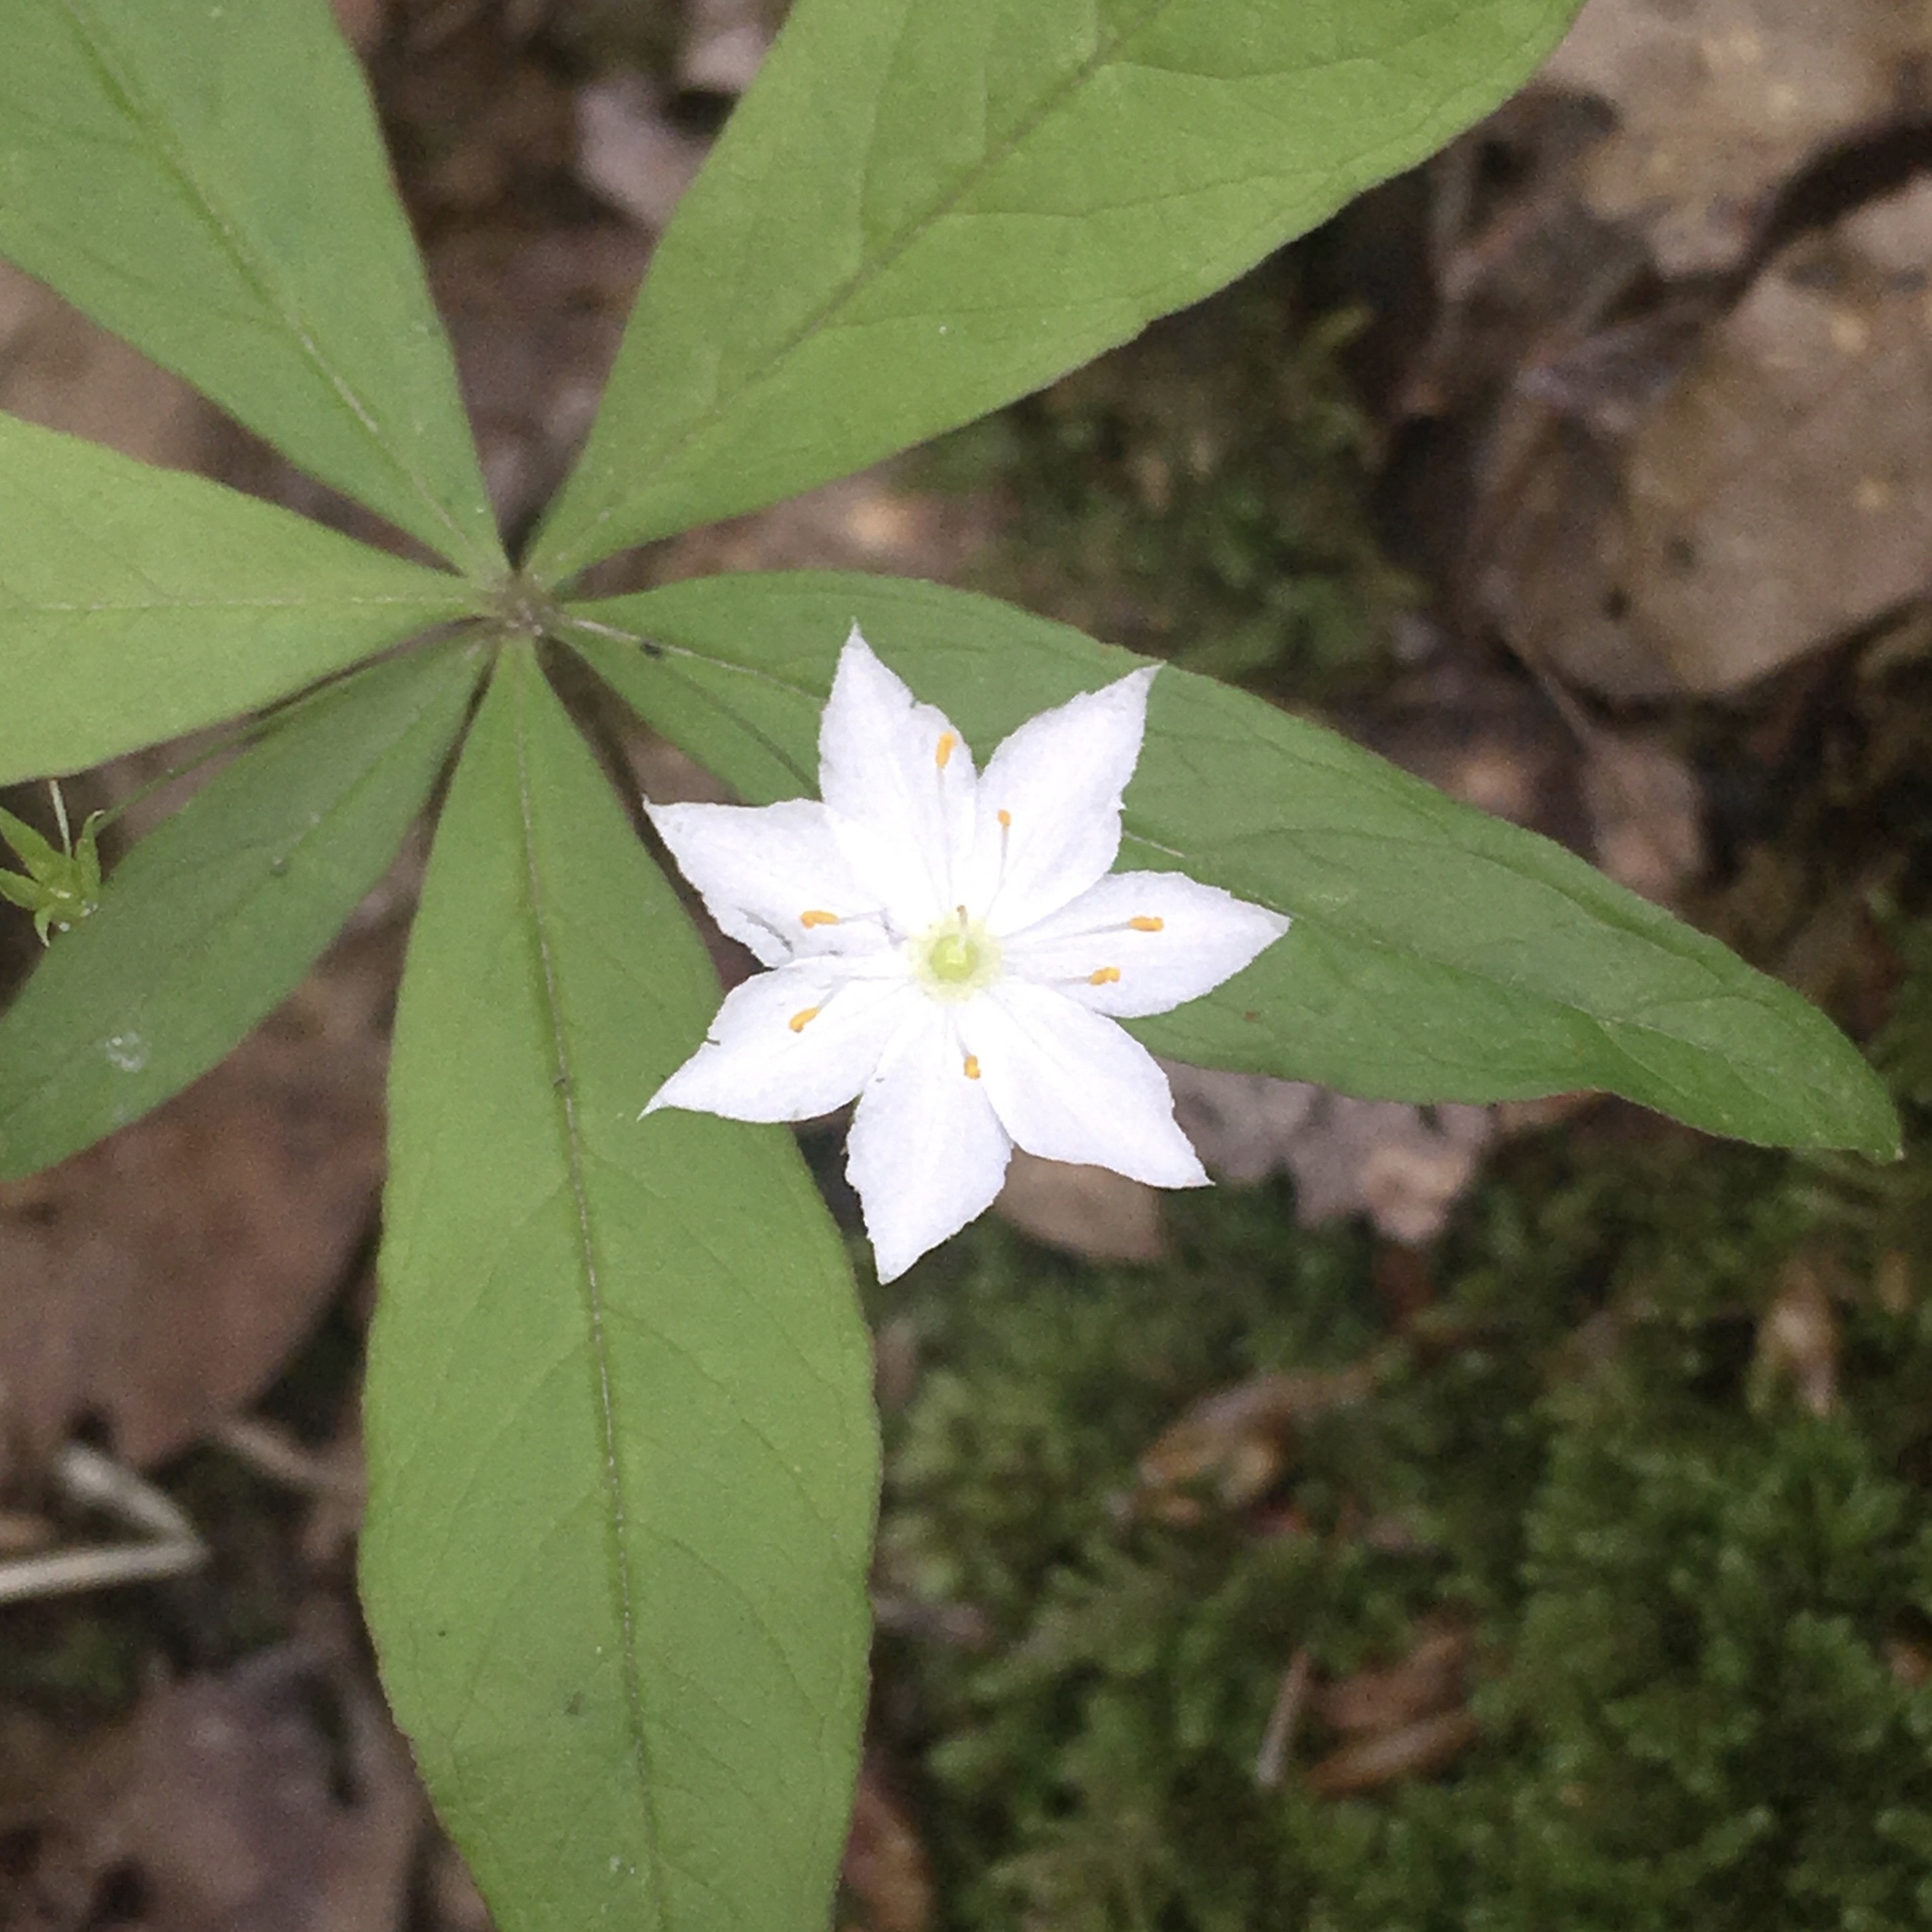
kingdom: Plantae
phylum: Tracheophyta
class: Magnoliopsida
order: Ericales
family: Primulaceae
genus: Lysimachia
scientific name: Lysimachia borealis
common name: American starflower
